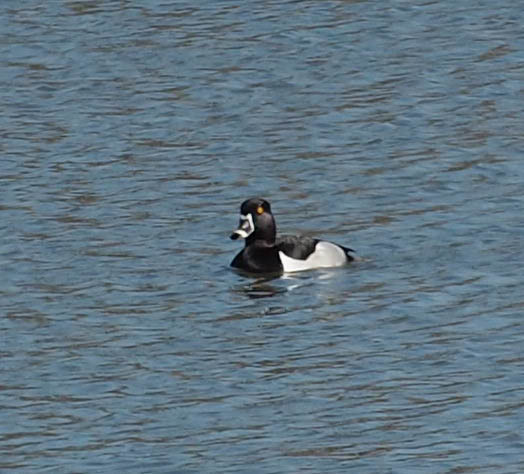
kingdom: Animalia
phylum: Chordata
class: Aves
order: Anseriformes
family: Anatidae
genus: Aythya
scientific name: Aythya collaris
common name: Ring-necked duck
